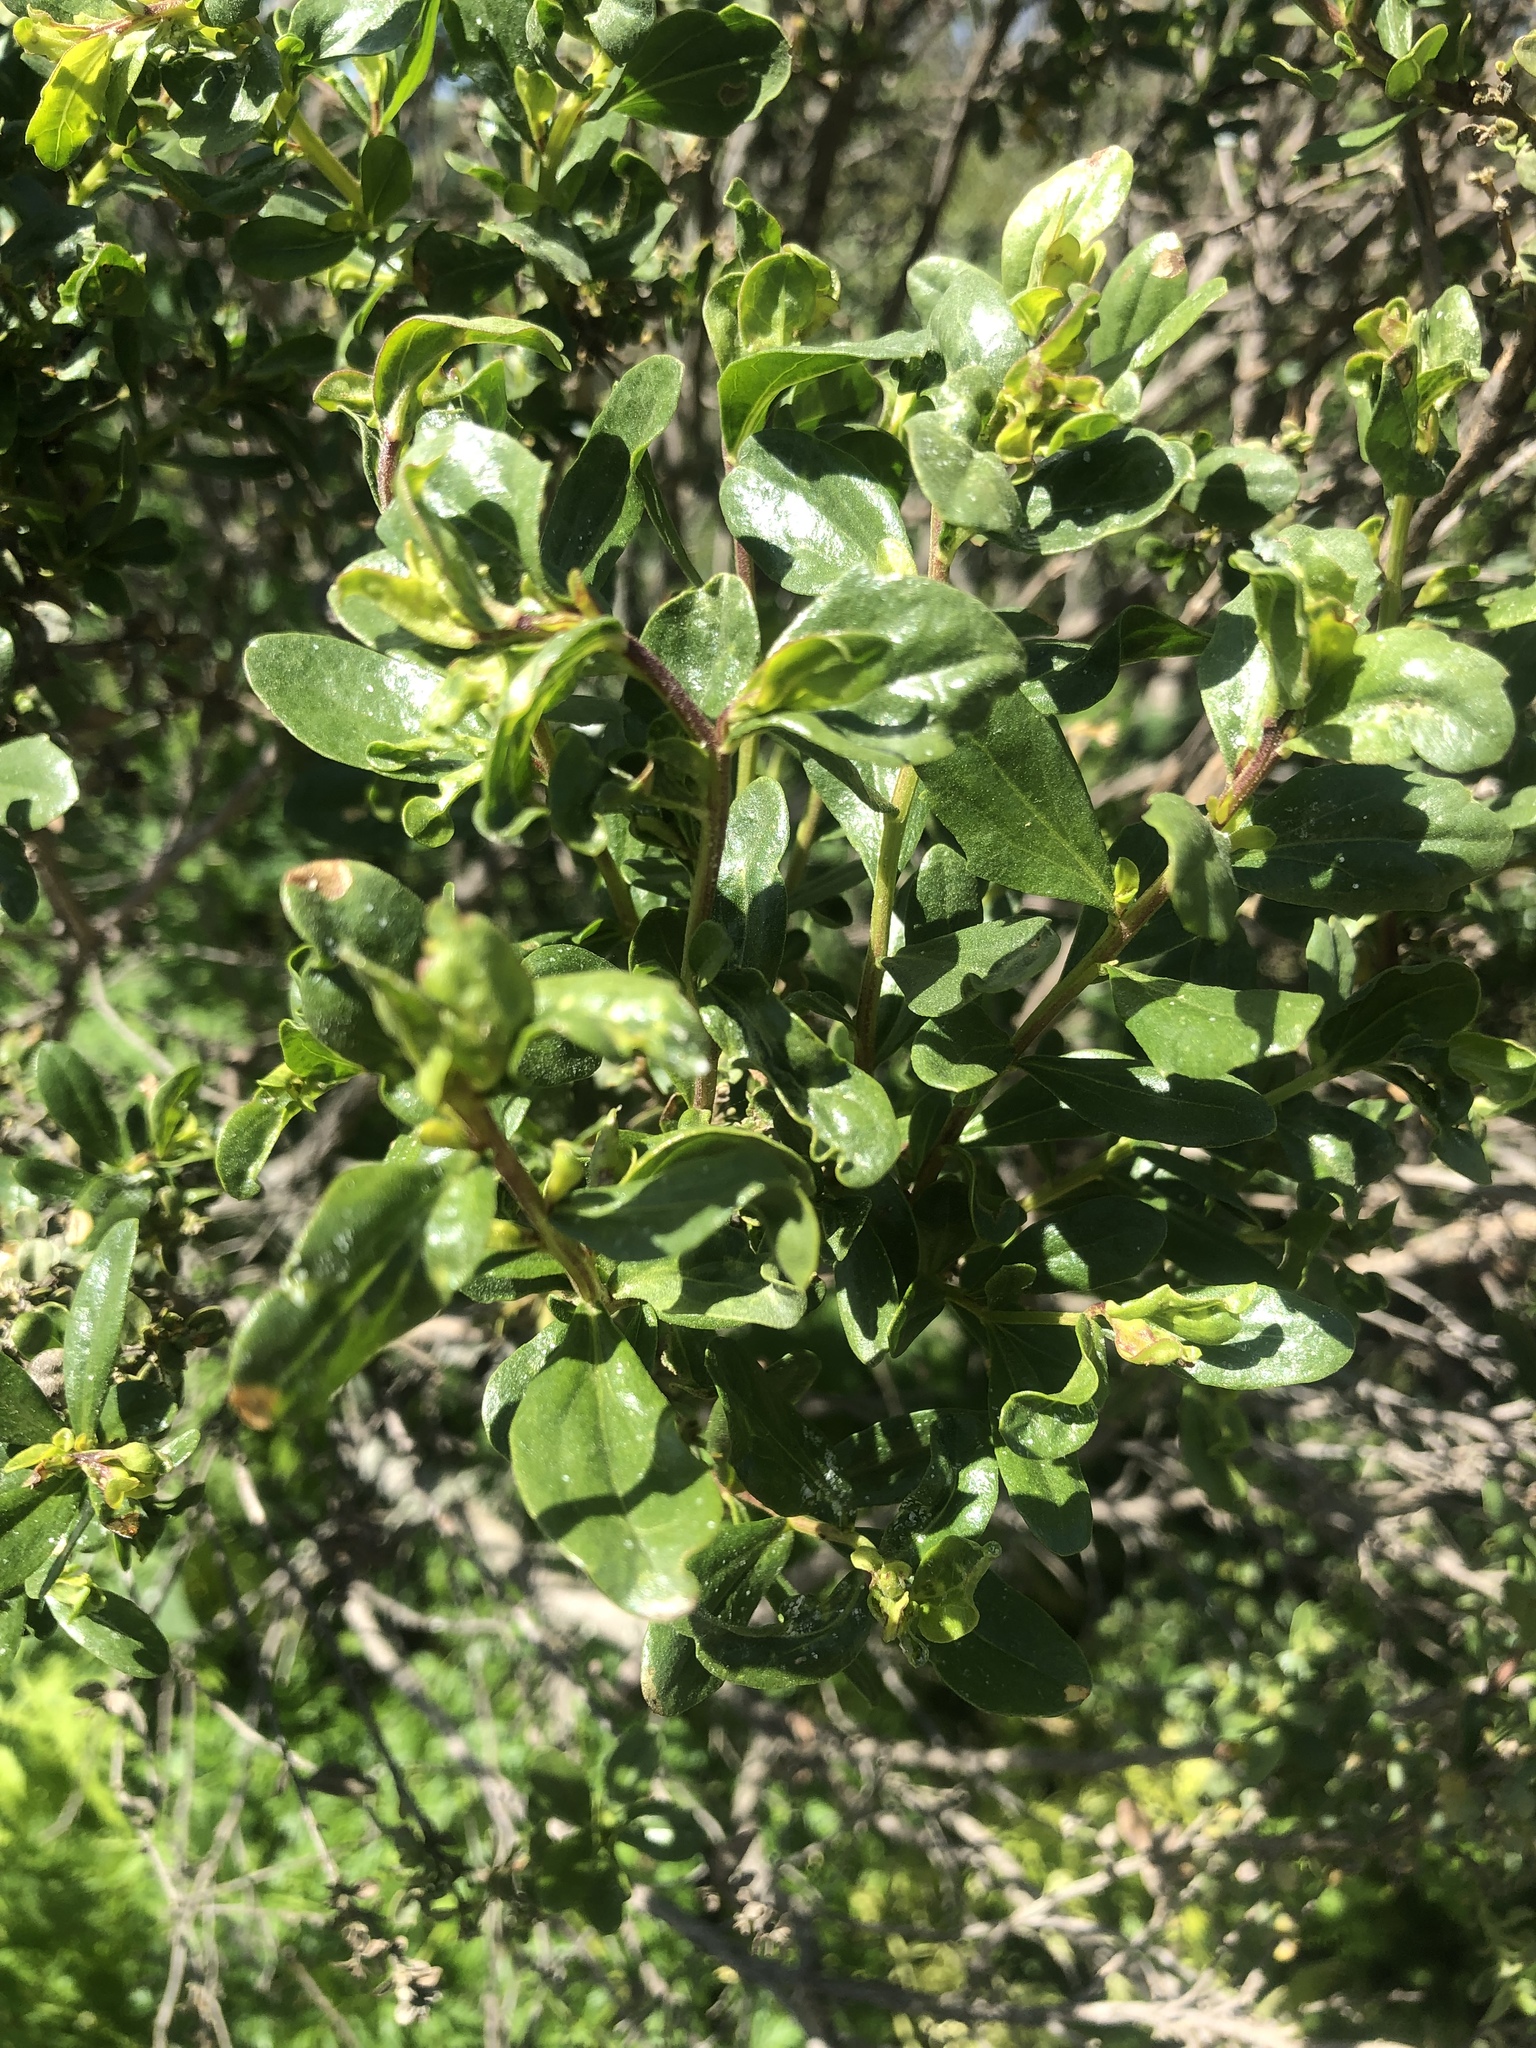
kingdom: Plantae
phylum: Tracheophyta
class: Magnoliopsida
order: Asterales
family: Asteraceae
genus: Baccharis
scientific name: Baccharis pilularis
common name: Coyotebrush
